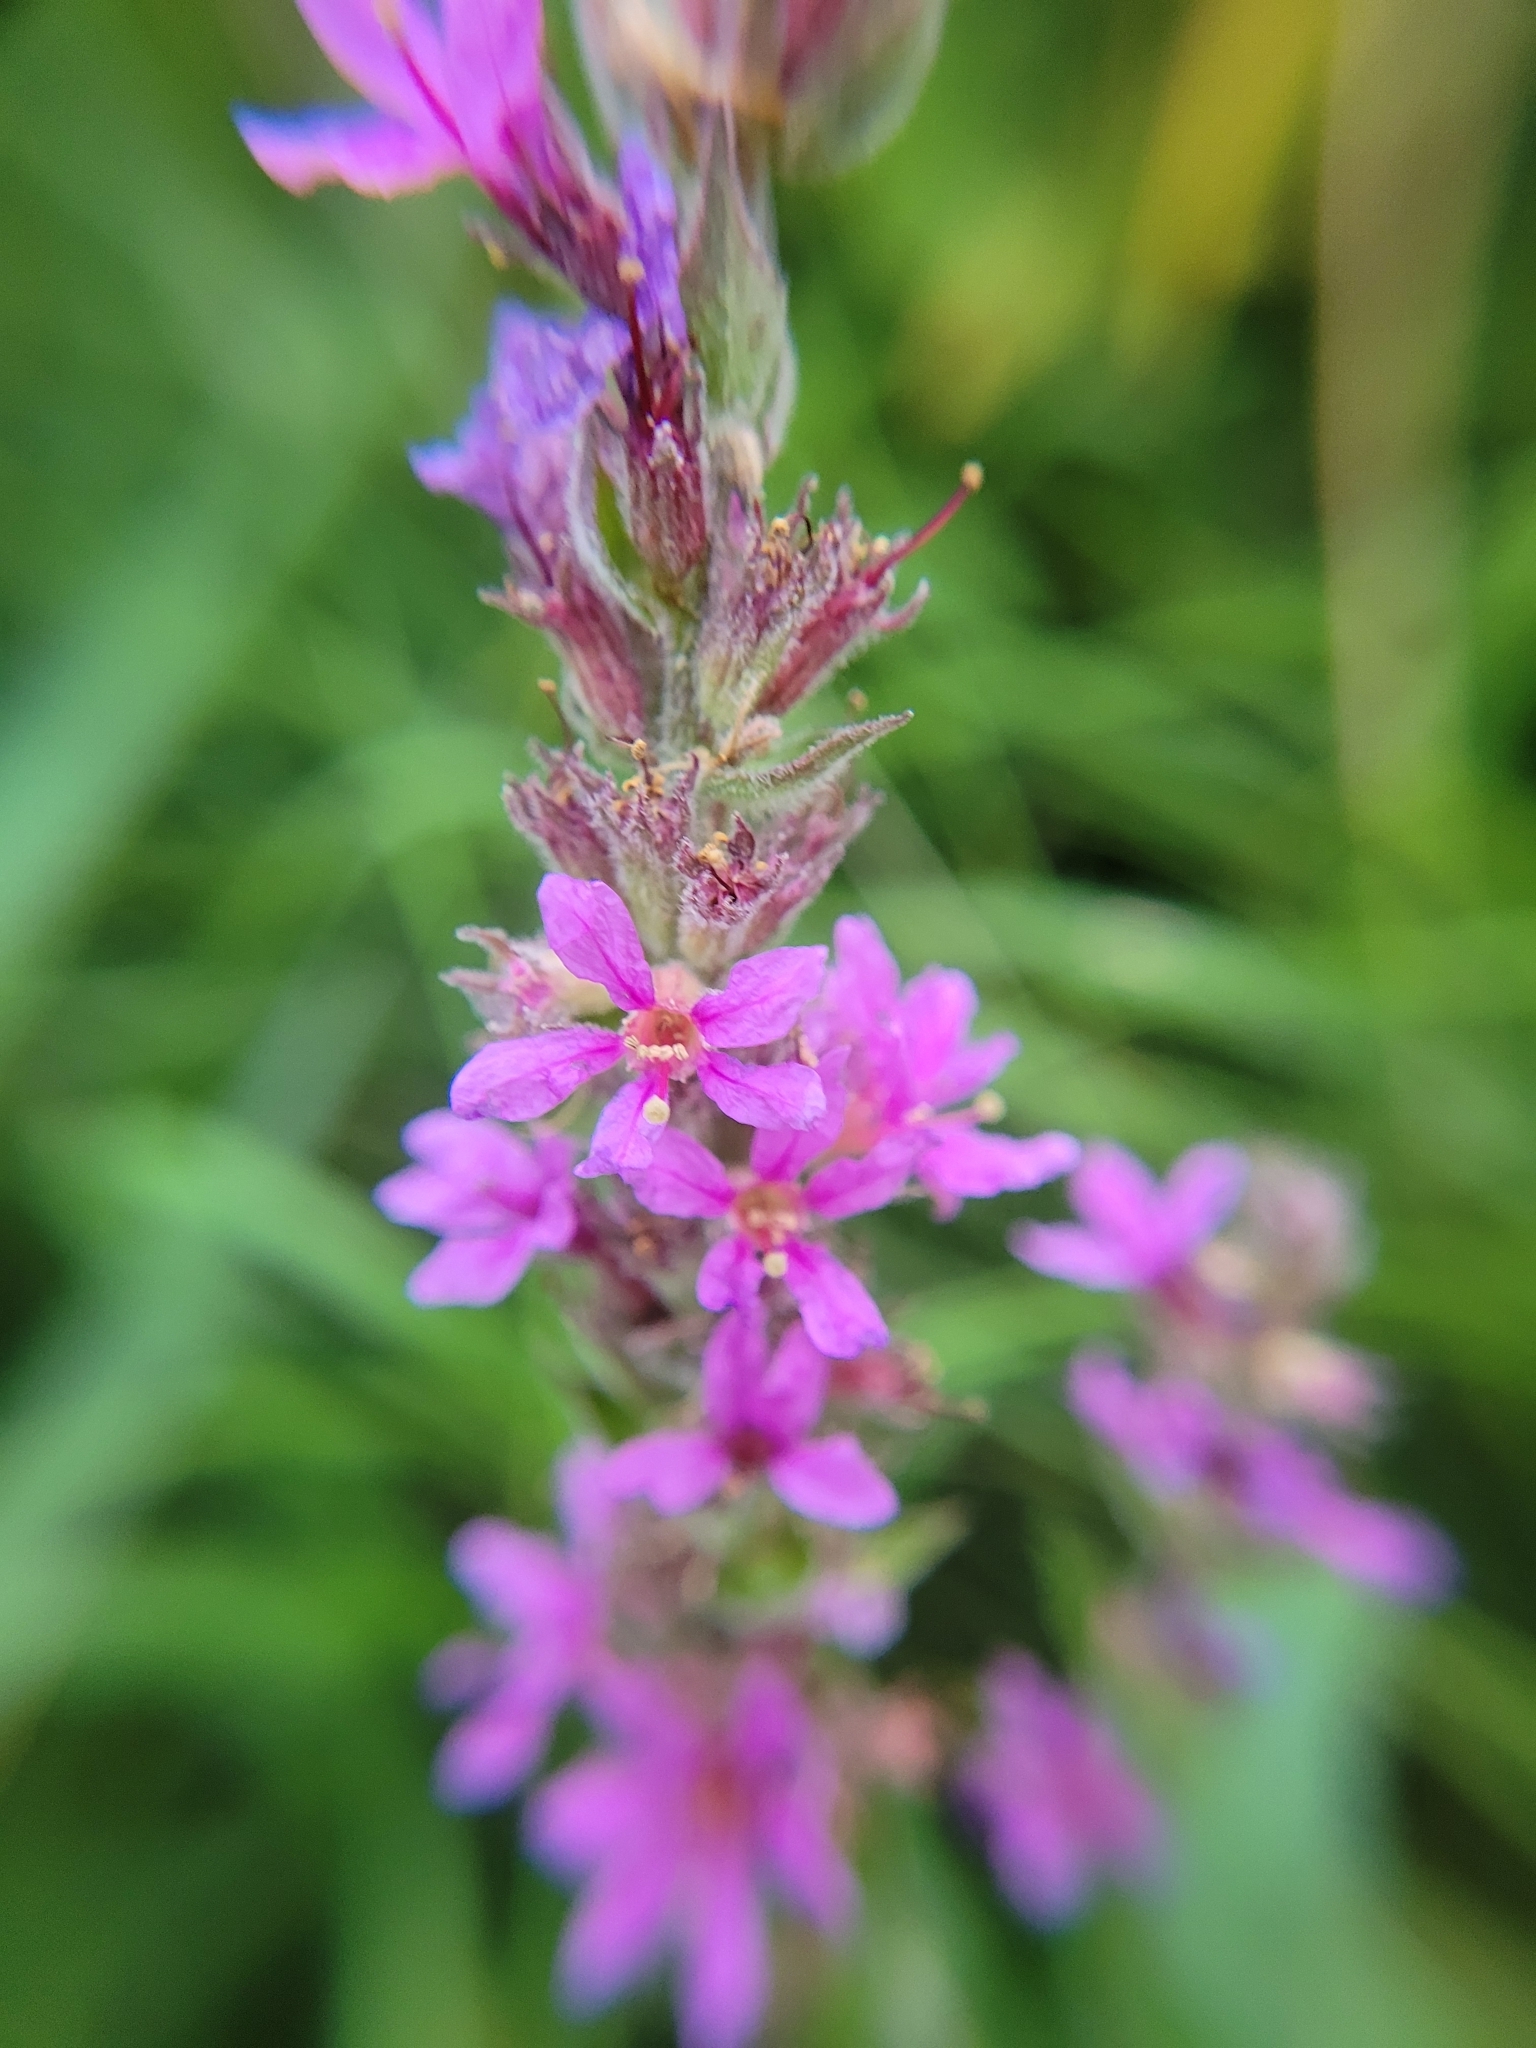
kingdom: Plantae
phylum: Tracheophyta
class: Magnoliopsida
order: Myrtales
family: Lythraceae
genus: Lythrum
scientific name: Lythrum salicaria
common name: Purple loosestrife
